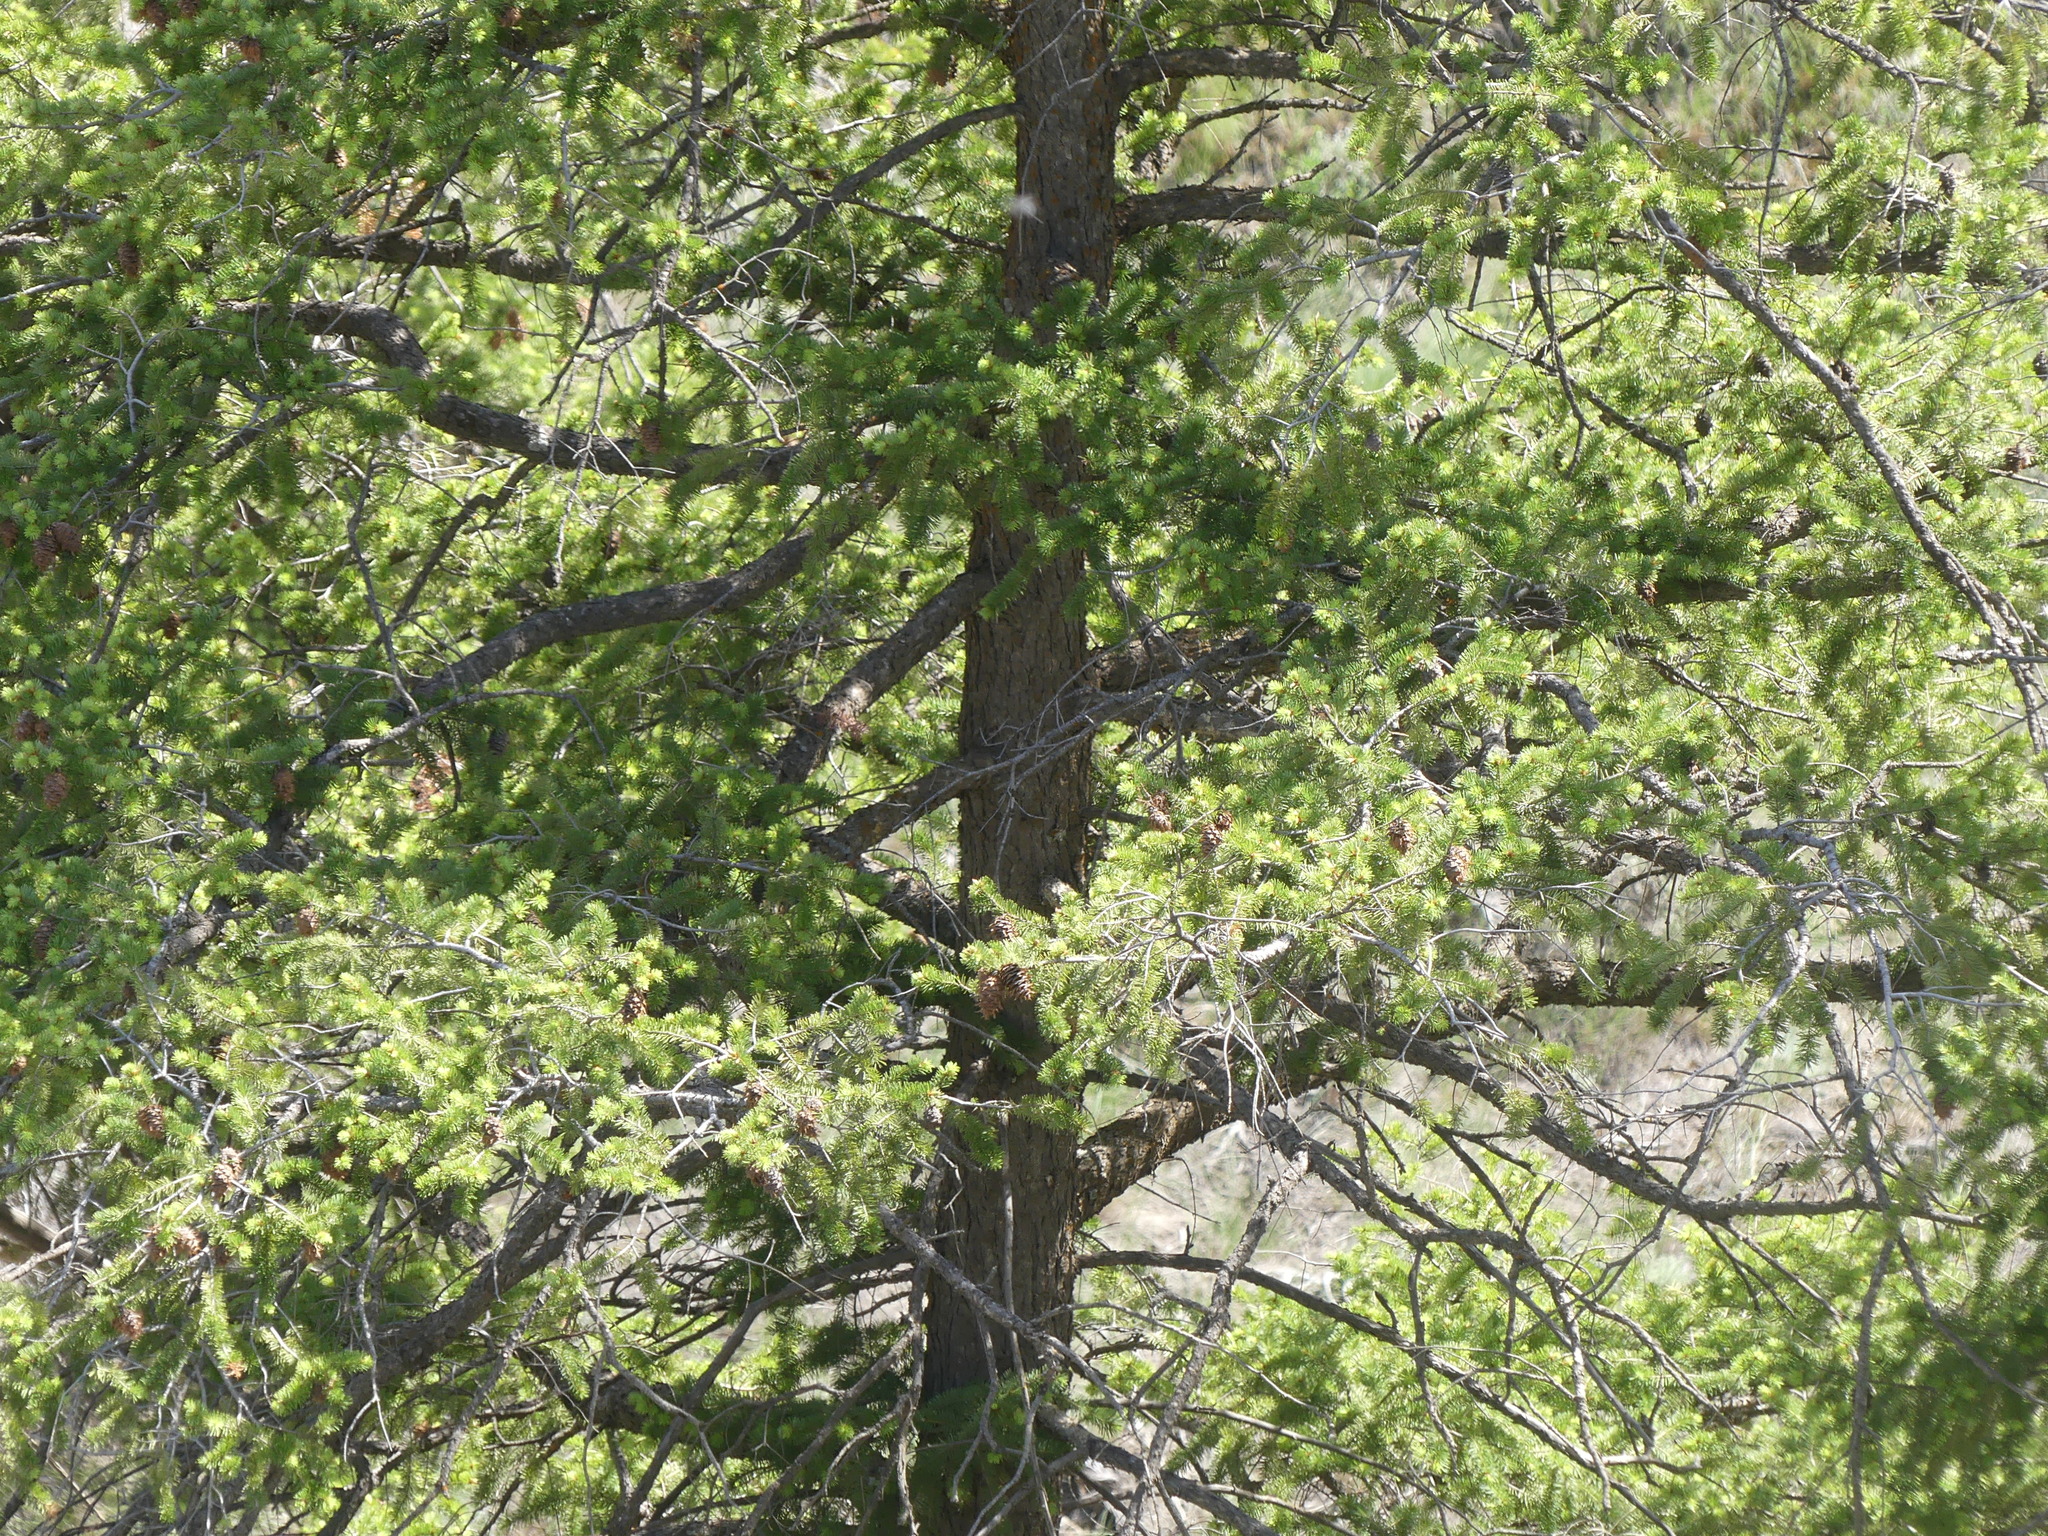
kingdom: Plantae
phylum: Tracheophyta
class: Pinopsida
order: Pinales
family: Pinaceae
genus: Pseudotsuga
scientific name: Pseudotsuga menziesii
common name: Douglas fir
